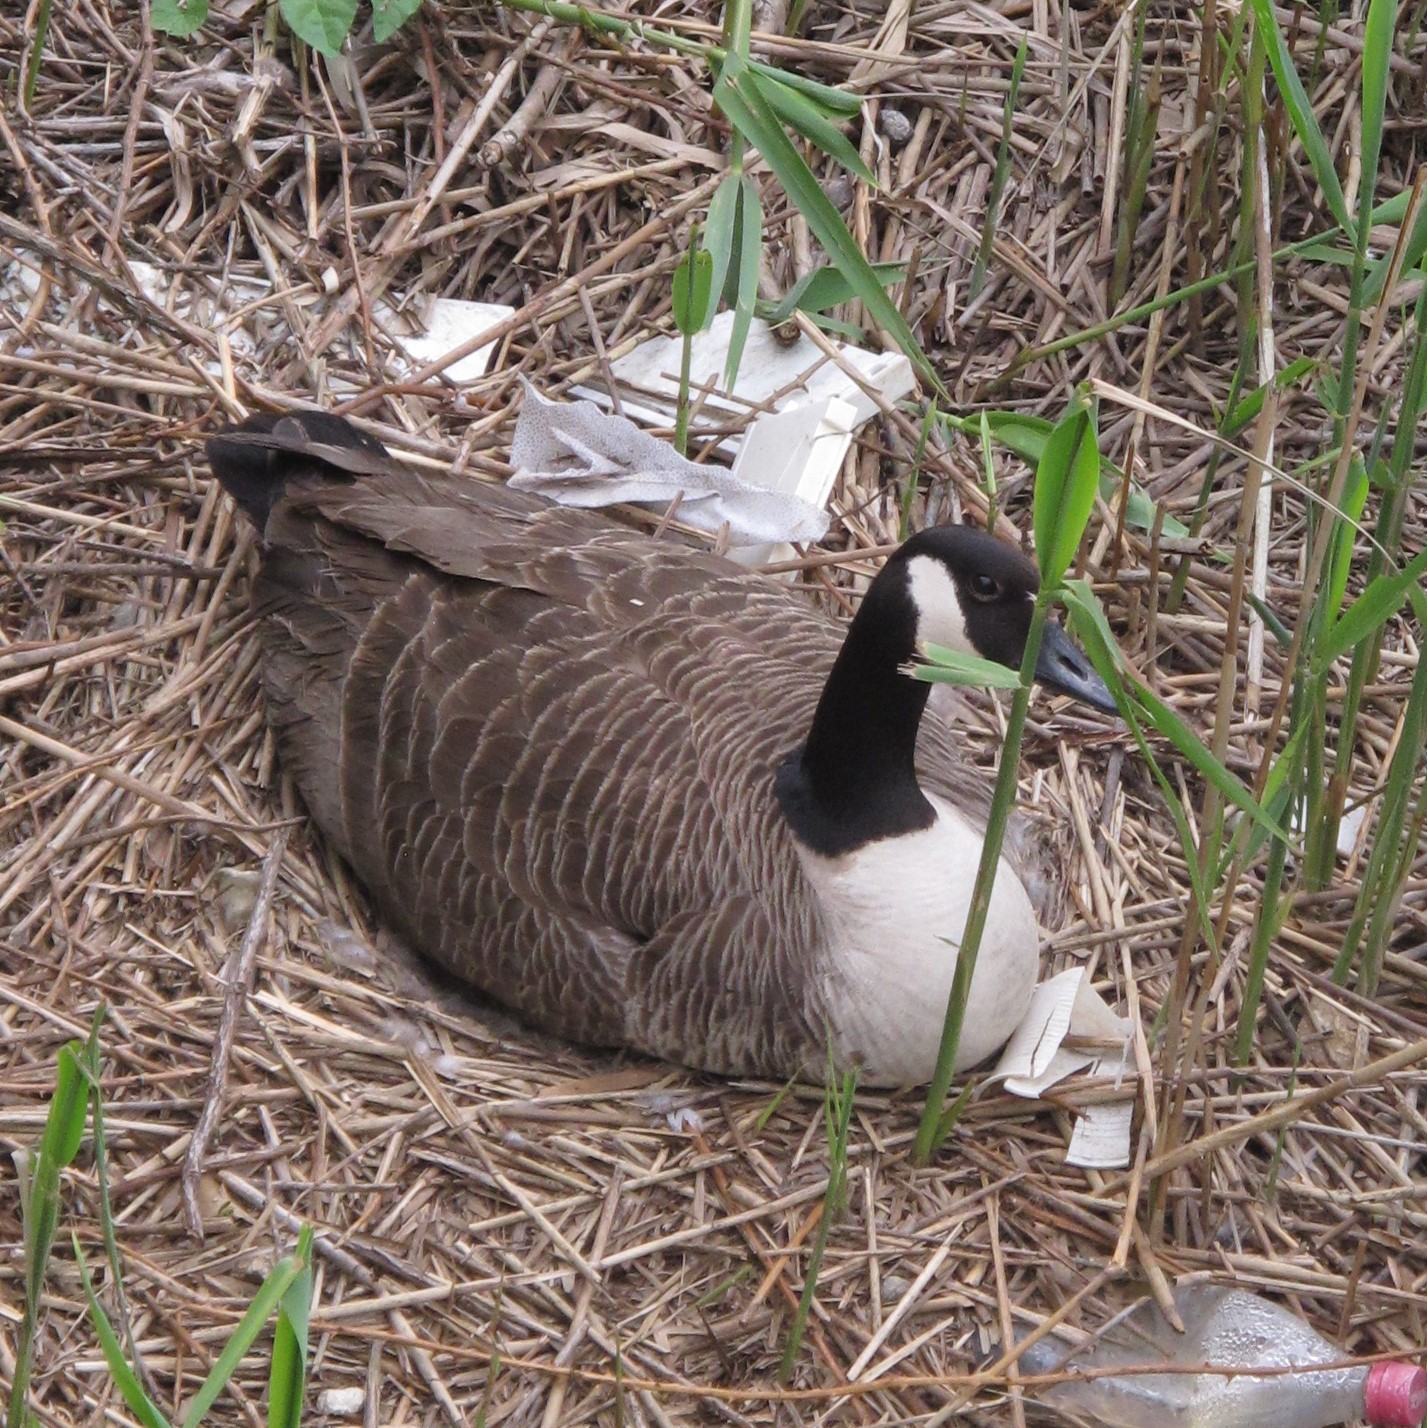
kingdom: Animalia
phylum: Chordata
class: Aves
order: Anseriformes
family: Anatidae
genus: Branta
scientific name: Branta canadensis
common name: Canada goose
